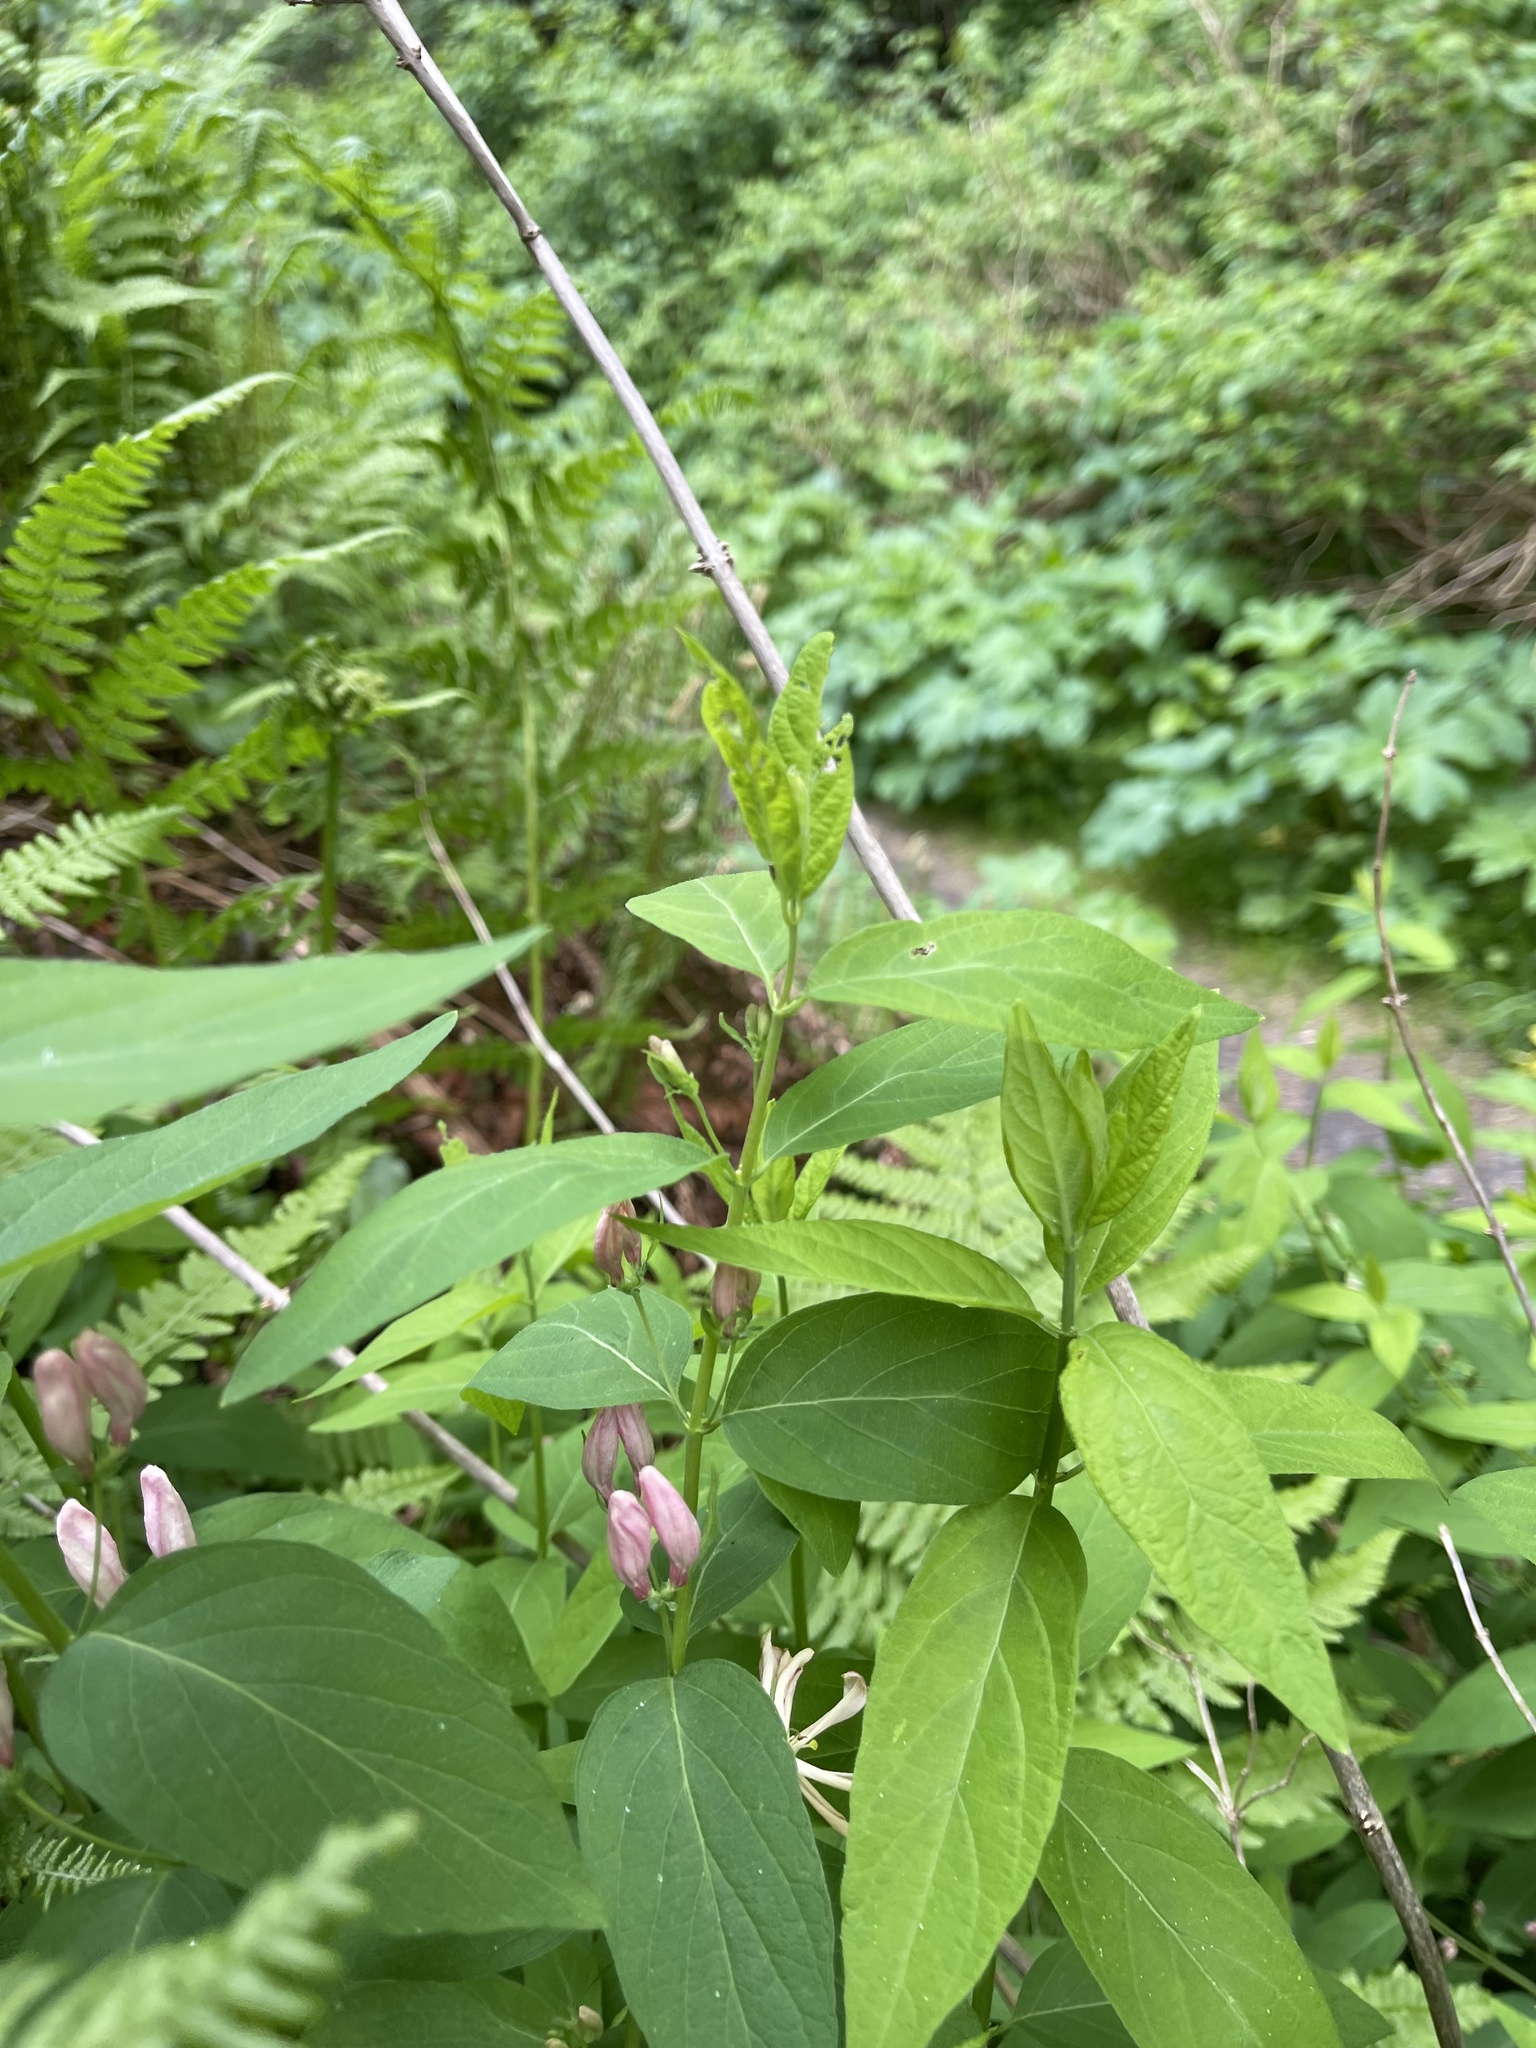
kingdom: Plantae
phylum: Tracheophyta
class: Magnoliopsida
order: Ranunculales
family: Papaveraceae
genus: Dicentra
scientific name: Dicentra formosa
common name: Bleeding-heart
